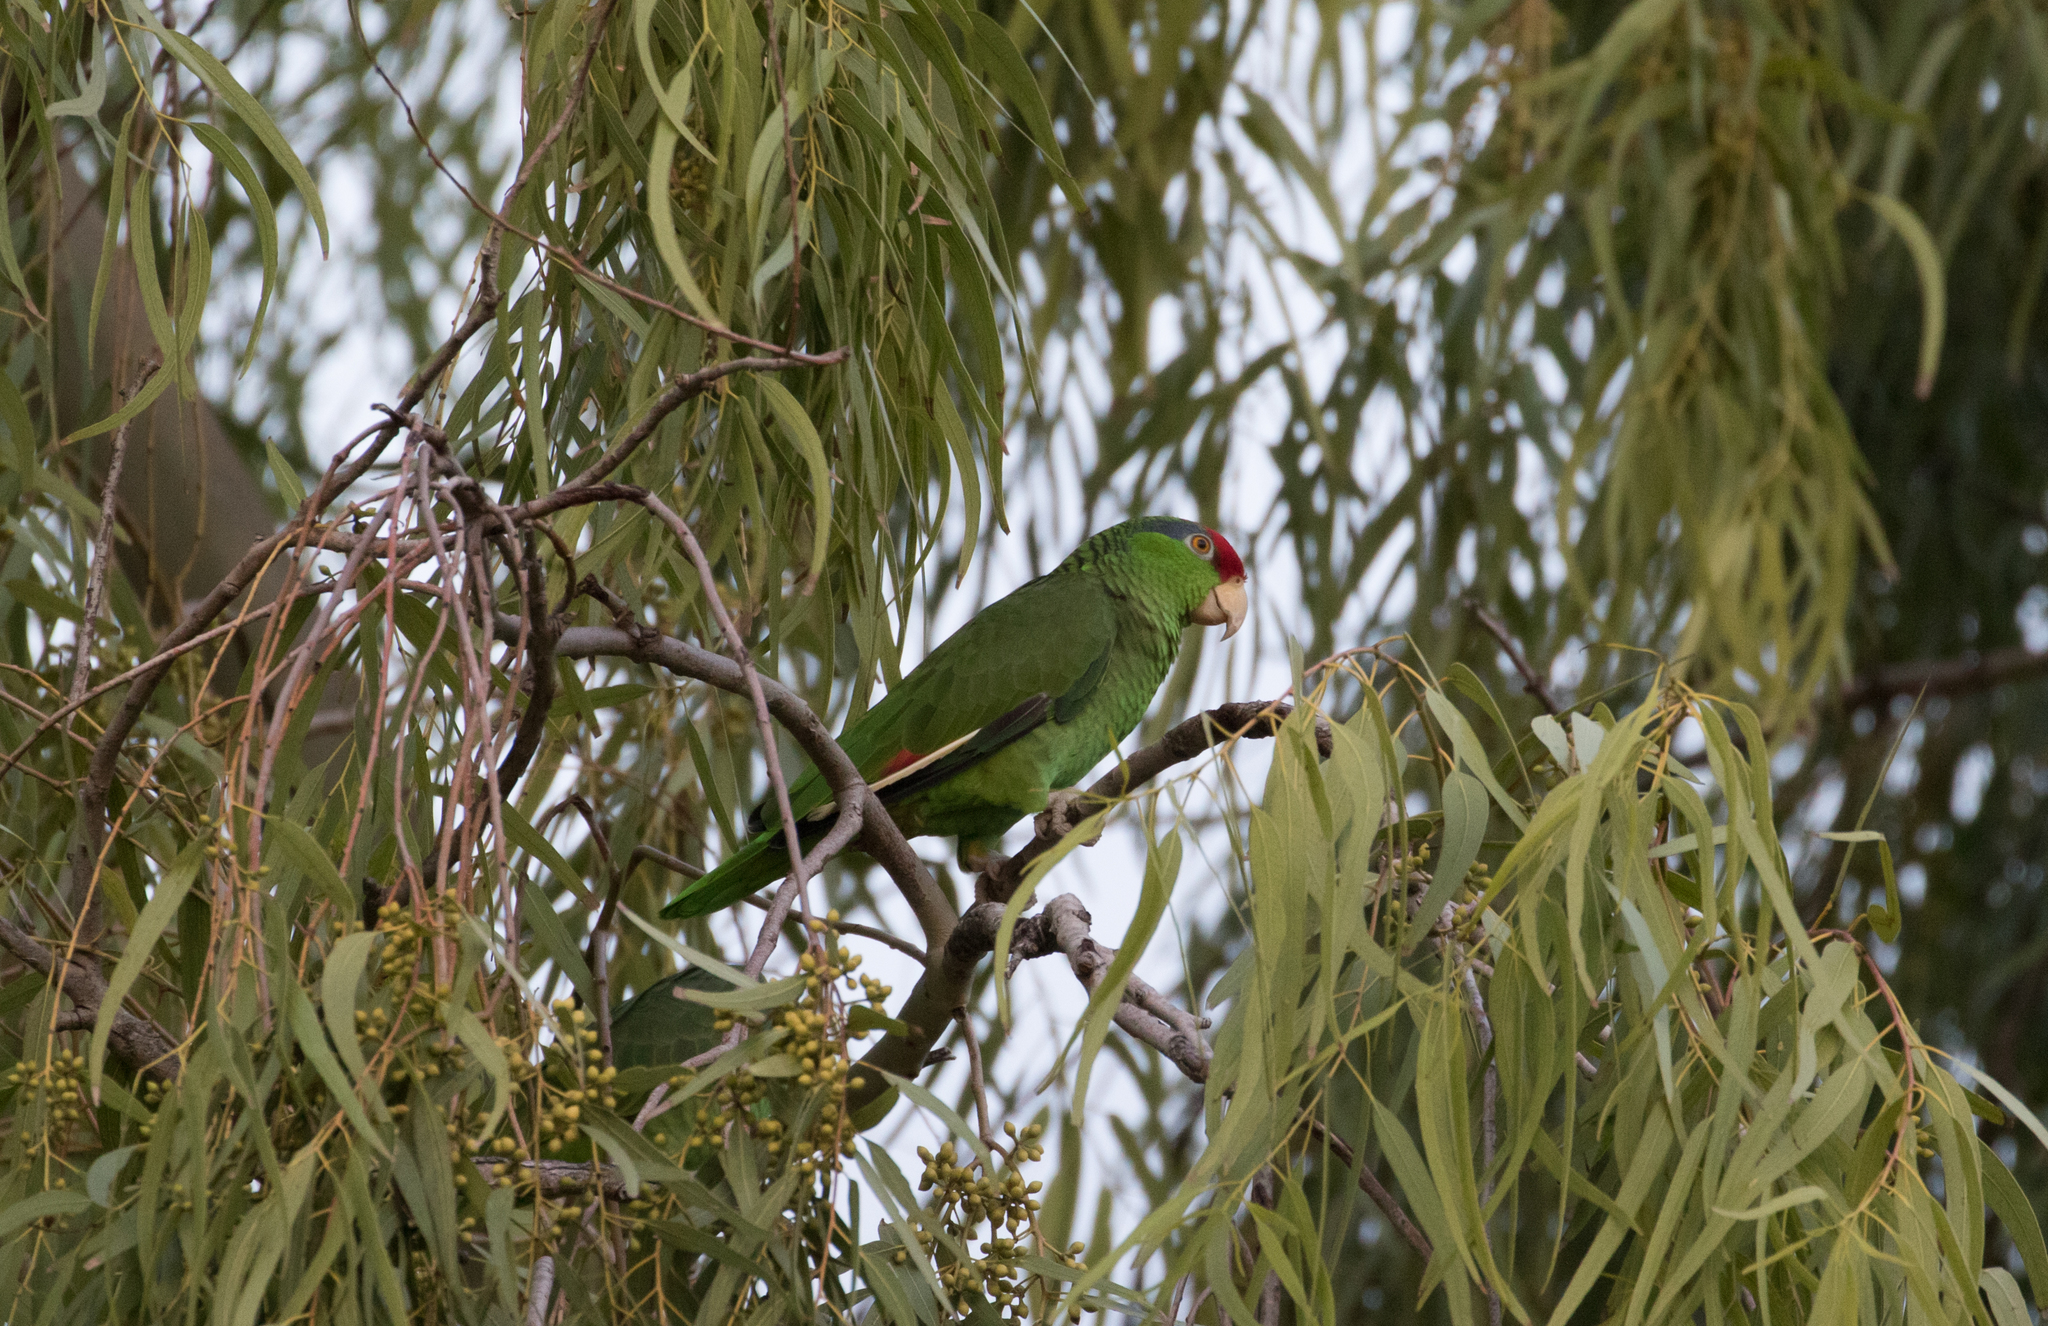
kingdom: Animalia
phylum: Chordata
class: Aves
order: Psittaciformes
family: Psittacidae
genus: Amazona
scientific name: Amazona viridigenalis
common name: Red-crowned amazon
